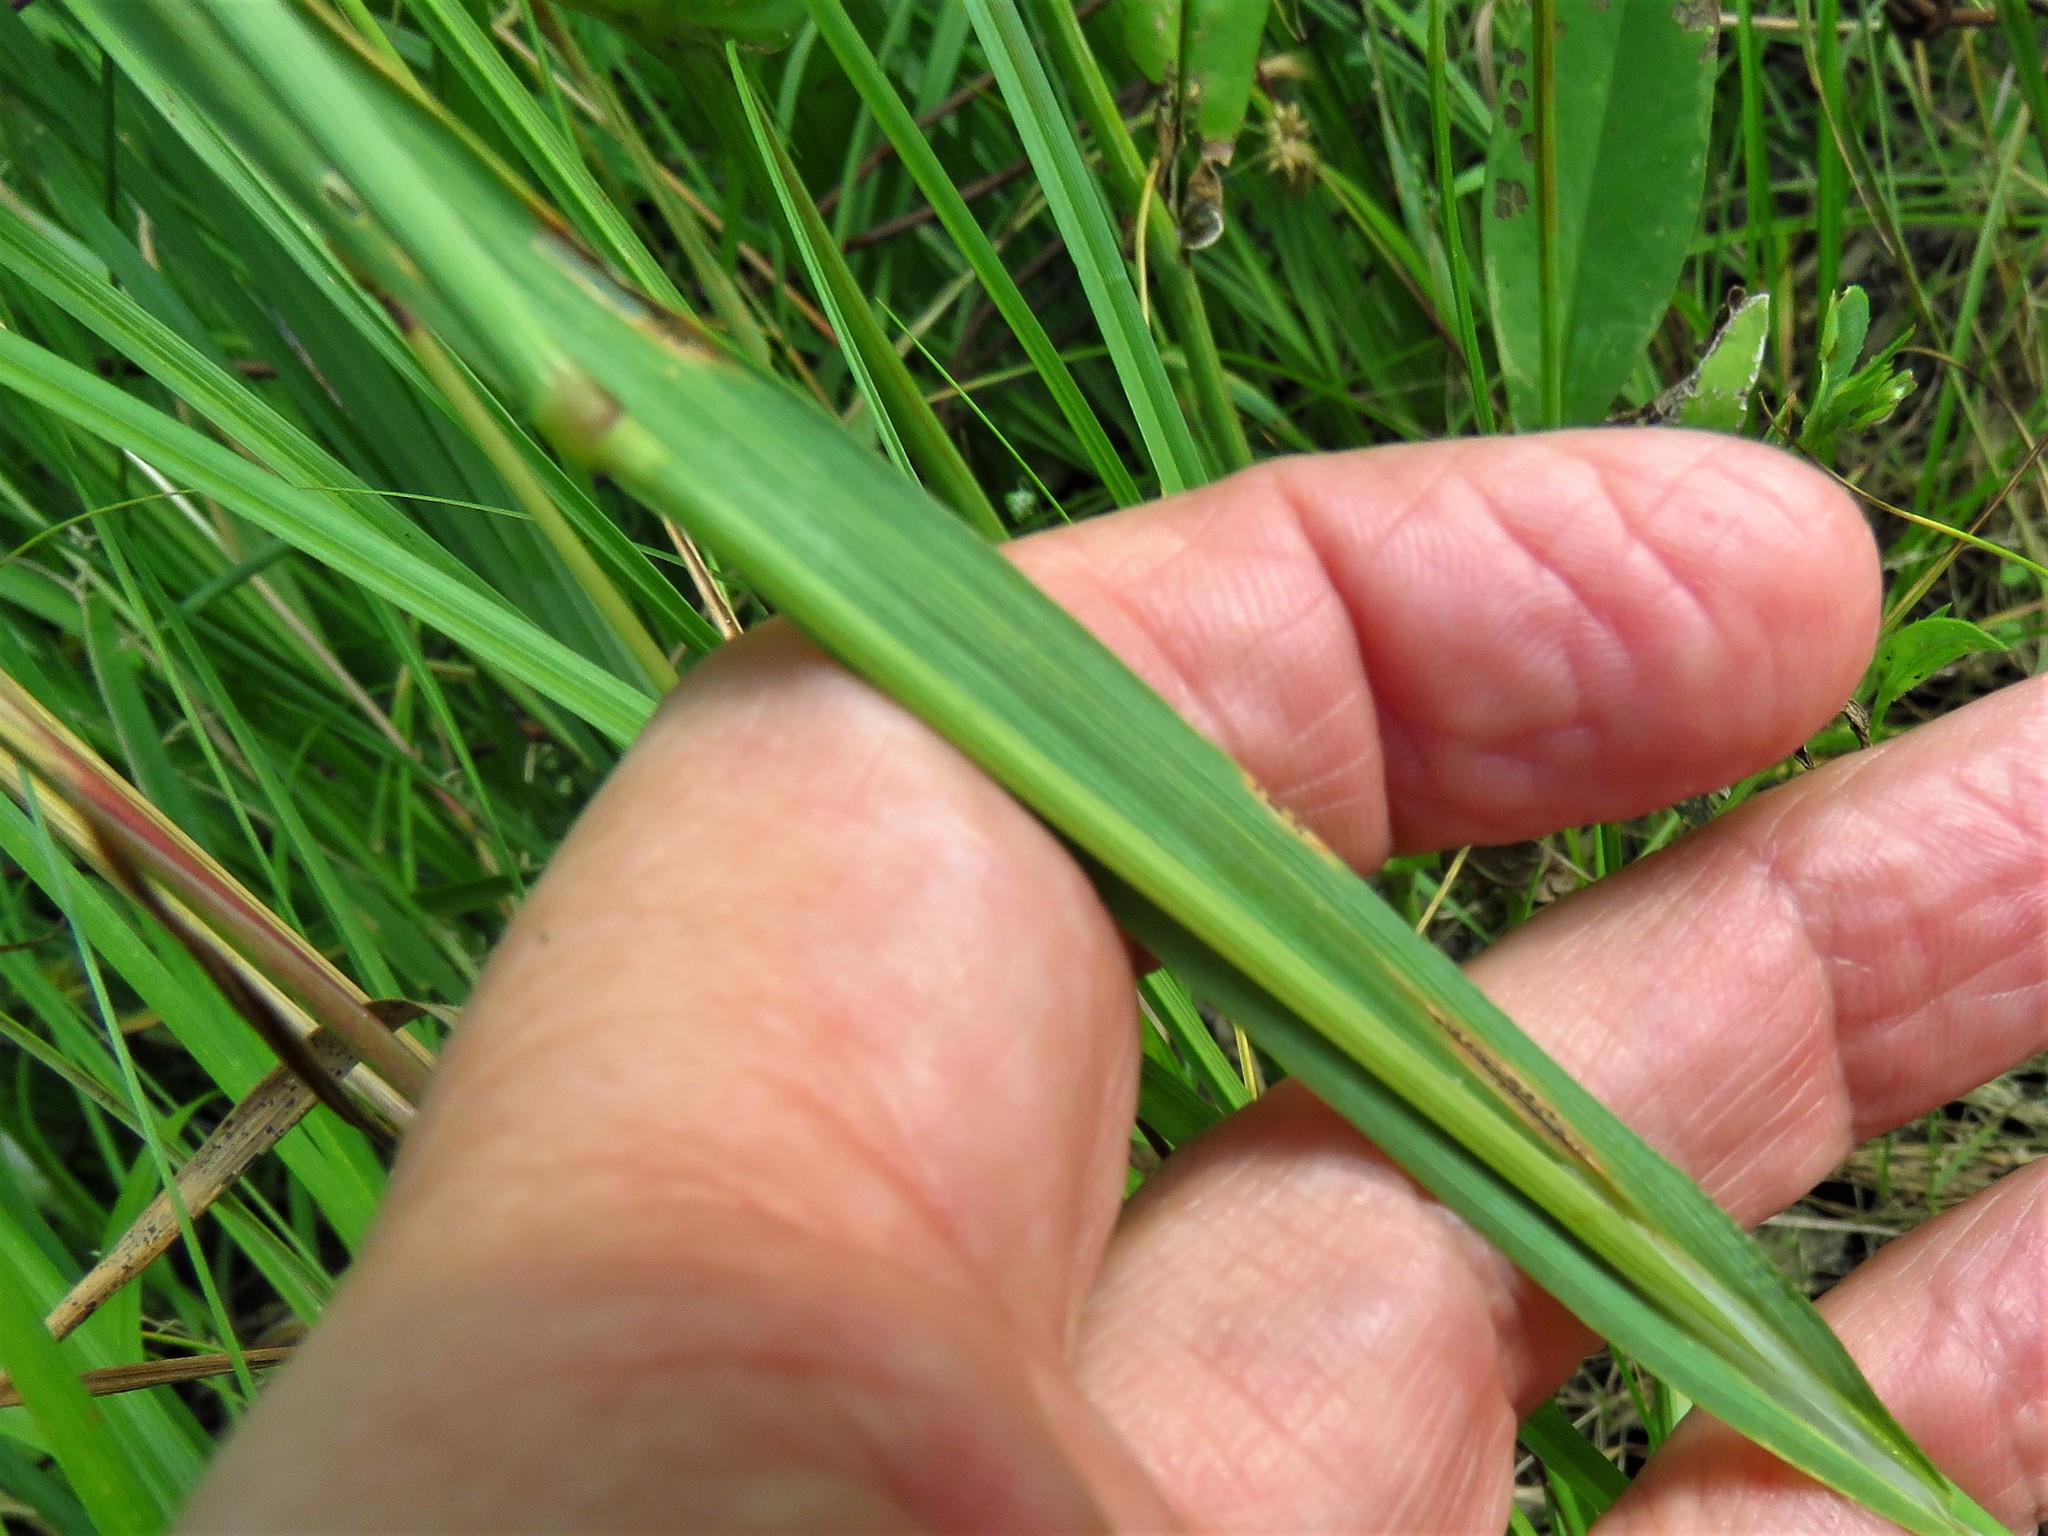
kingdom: Plantae
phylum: Tracheophyta
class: Liliopsida
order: Poales
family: Poaceae
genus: Briza
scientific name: Briza minor
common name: Lesser quaking-grass
